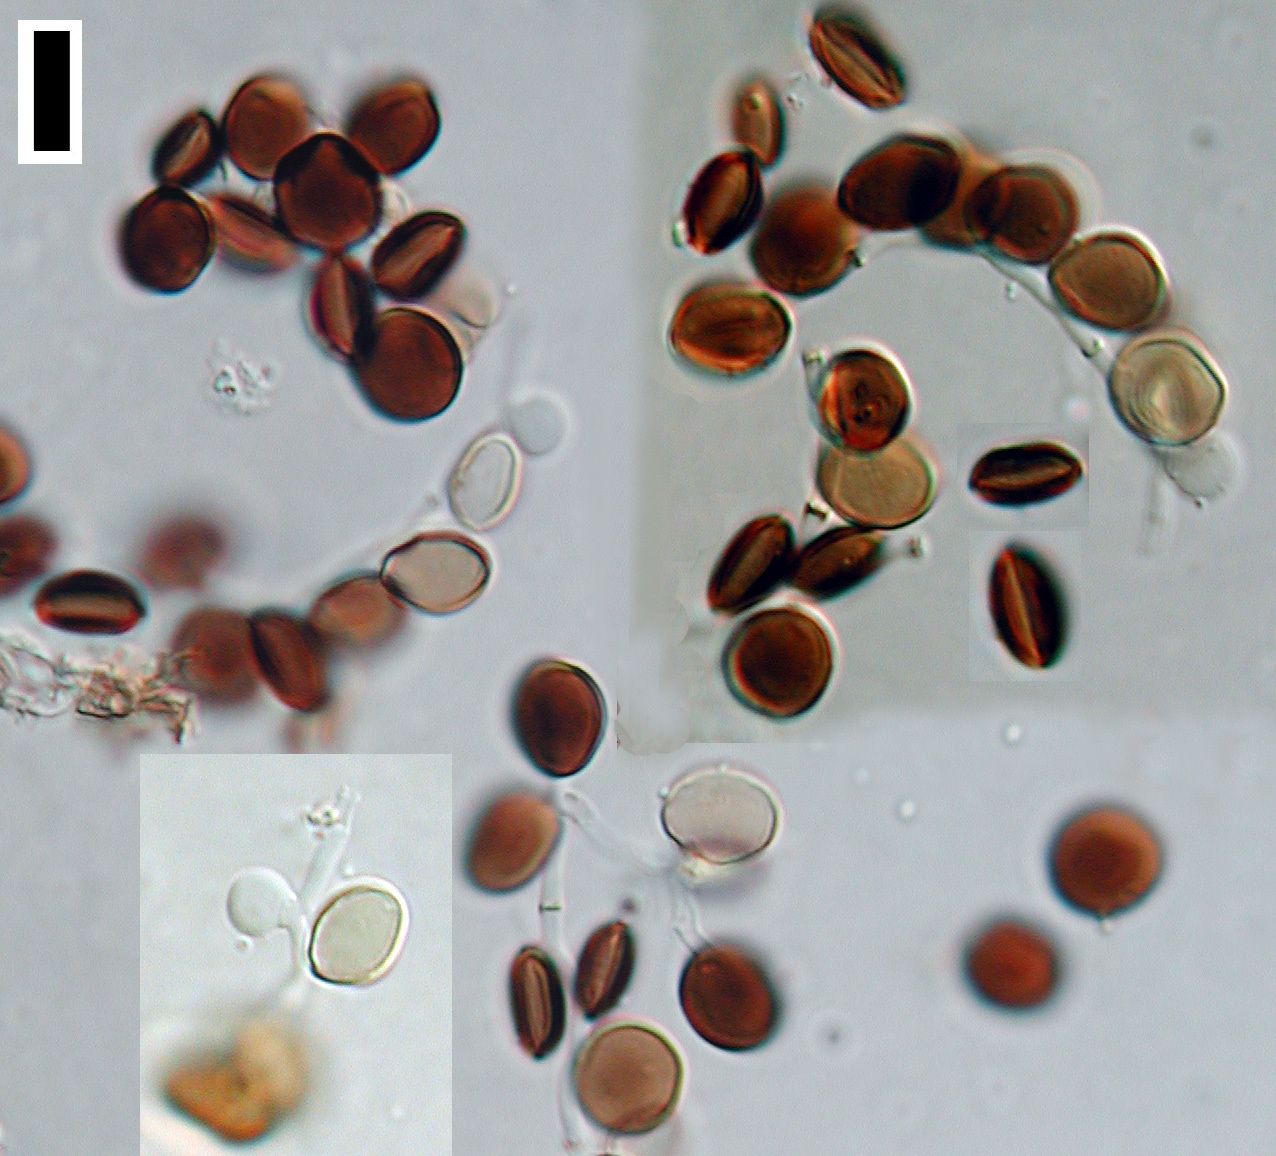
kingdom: Fungi
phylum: Ascomycota
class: Sordariomycetes
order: Xylariales
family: Apiosporaceae
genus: Arthrinium
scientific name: Arthrinium puccinioides
